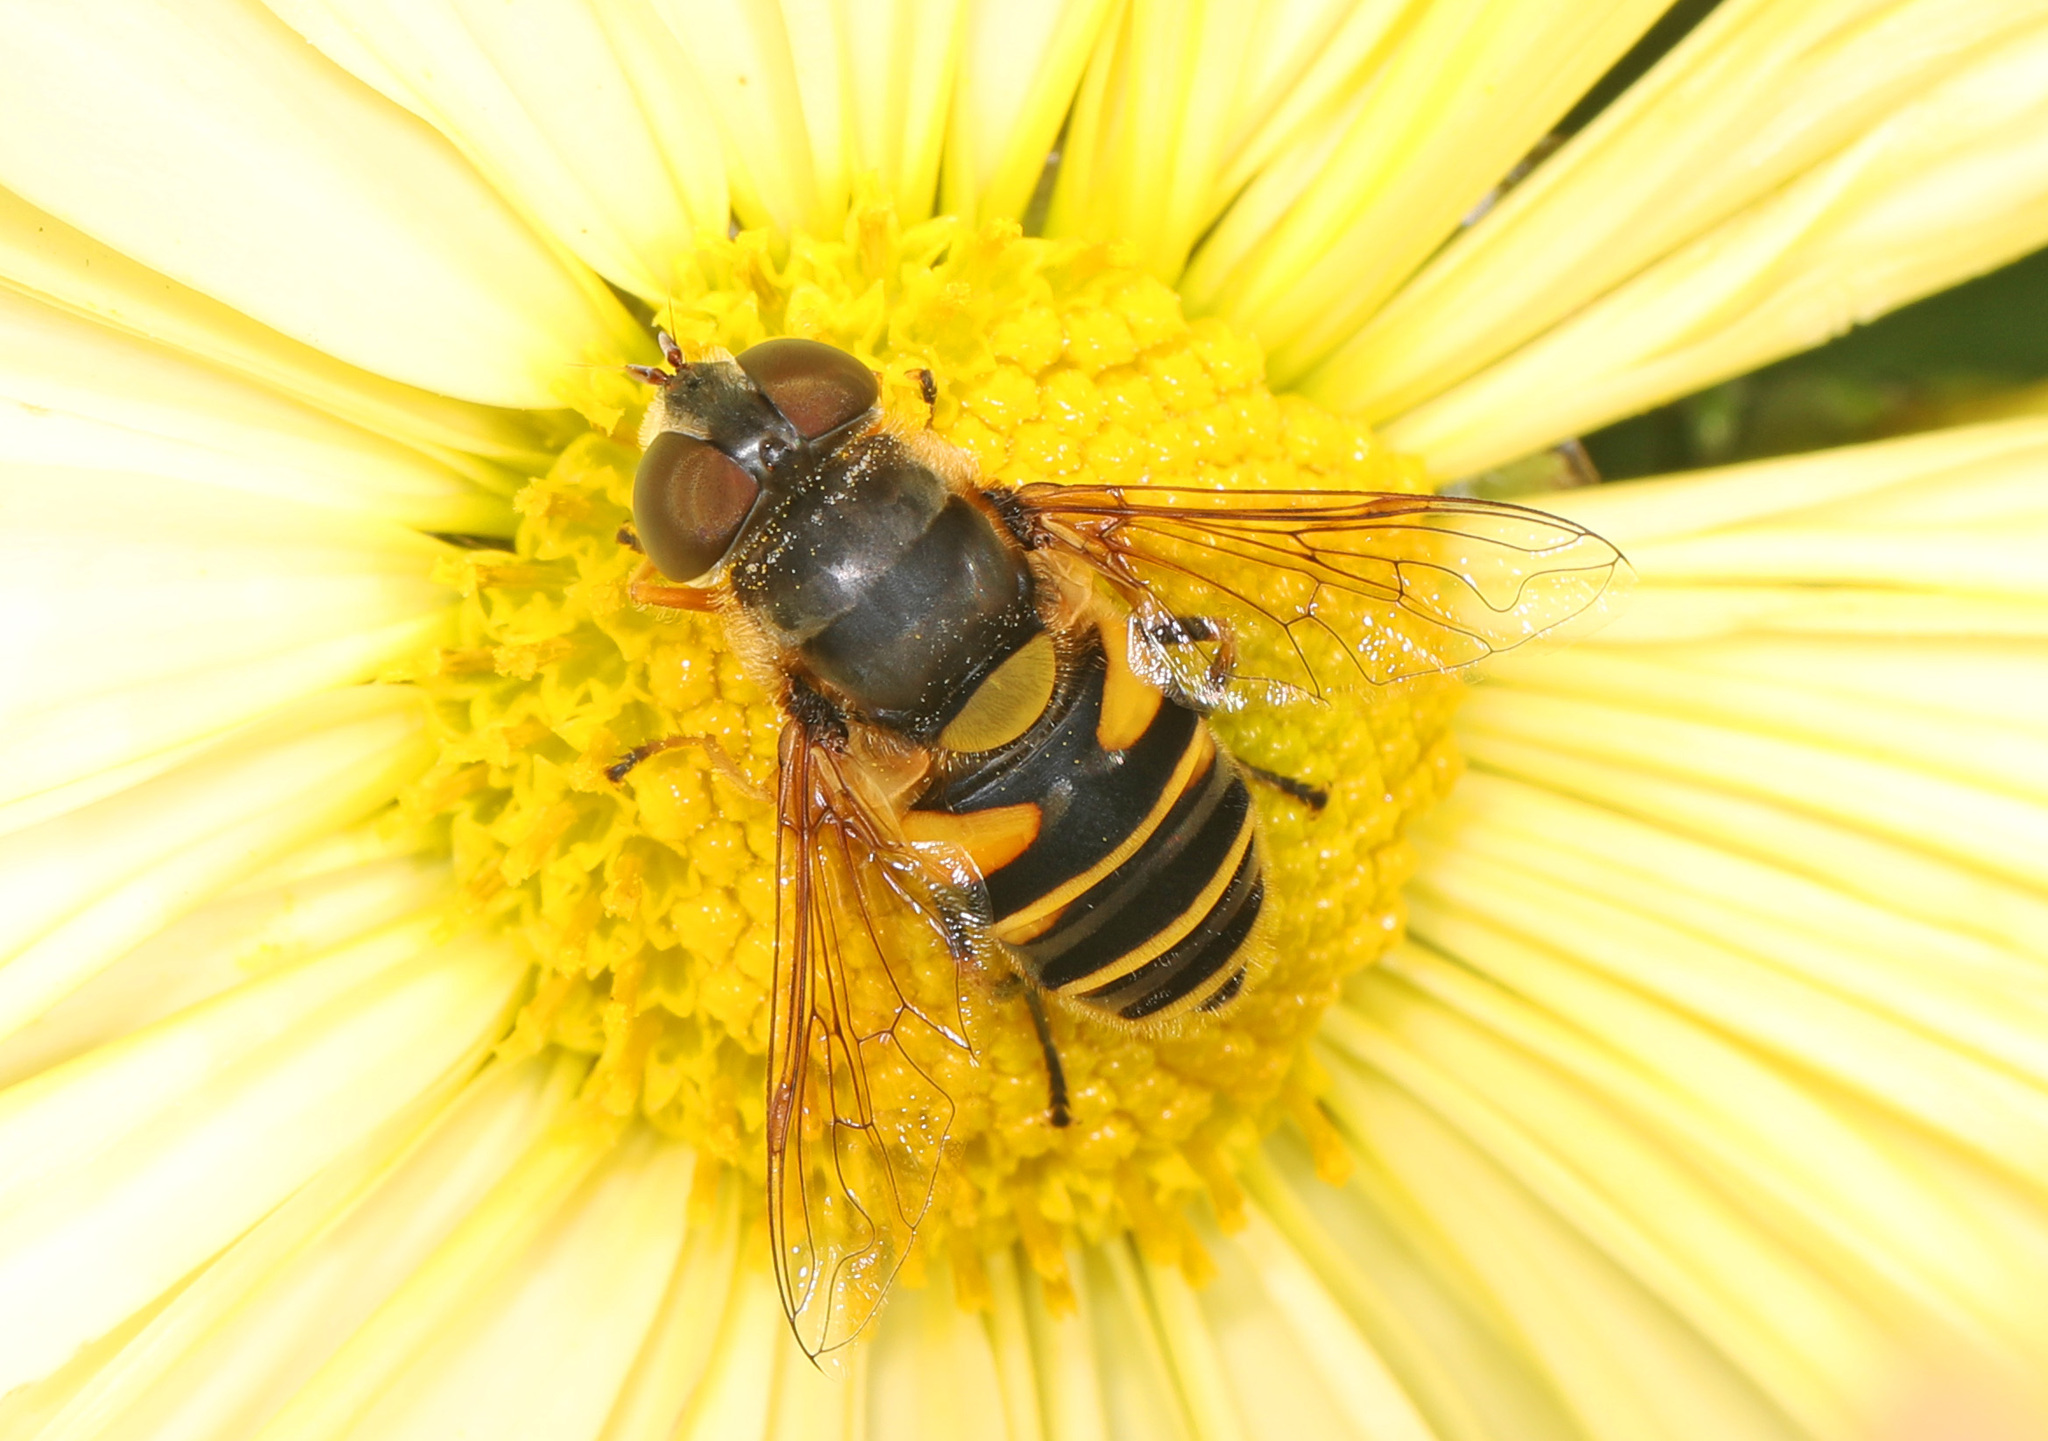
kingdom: Animalia
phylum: Arthropoda
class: Insecta
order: Diptera
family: Syrphidae
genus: Eristalis
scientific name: Eristalis transversa
